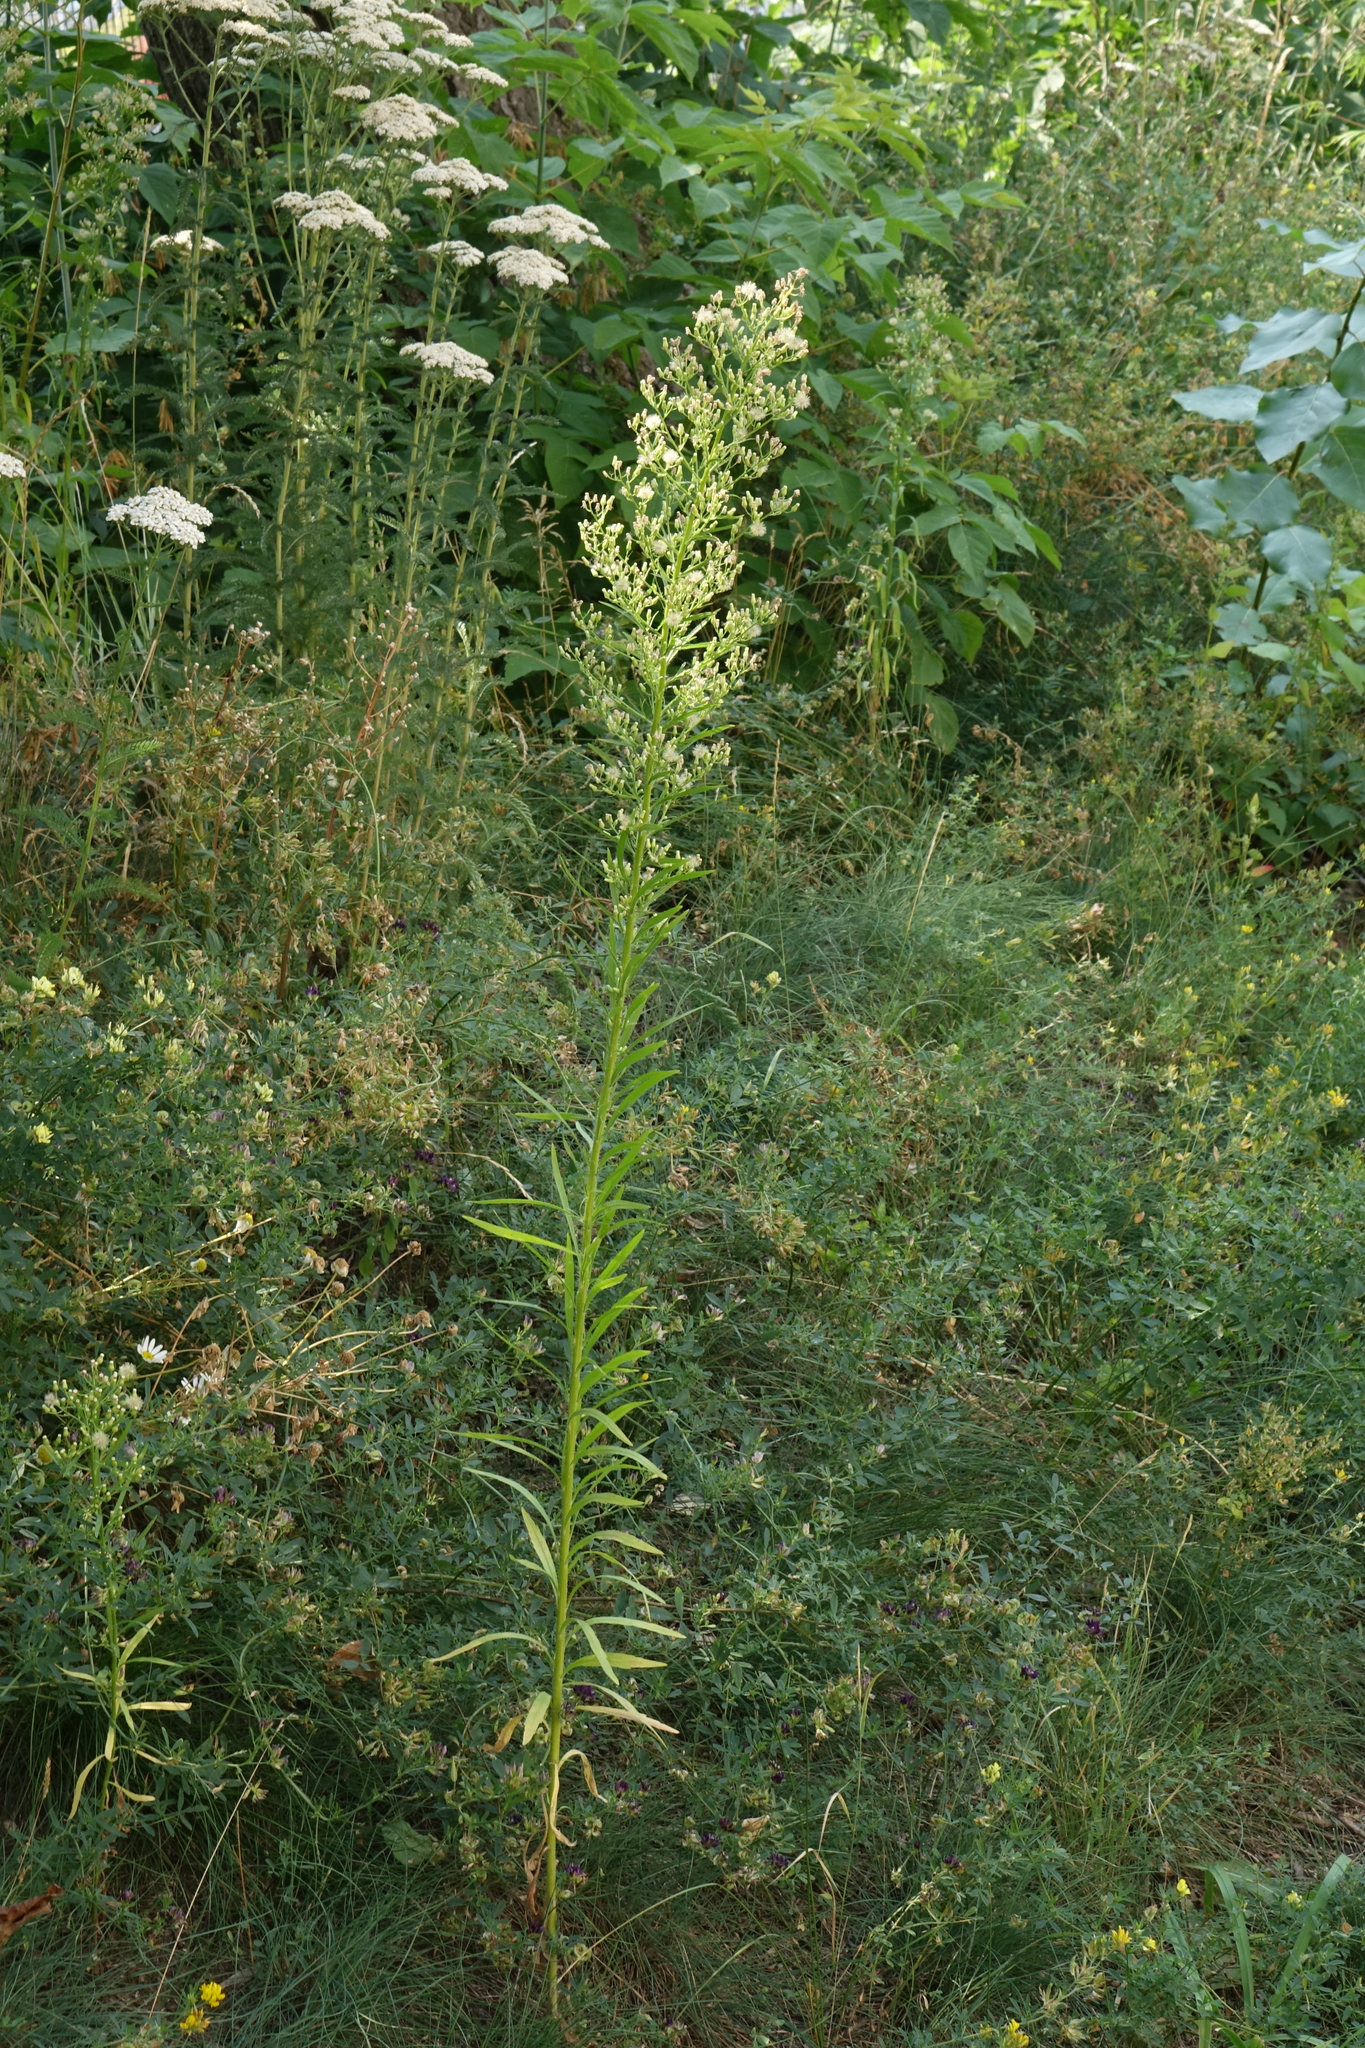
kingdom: Plantae
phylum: Tracheophyta
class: Magnoliopsida
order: Asterales
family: Asteraceae
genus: Erigeron
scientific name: Erigeron canadensis
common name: Canadian fleabane
